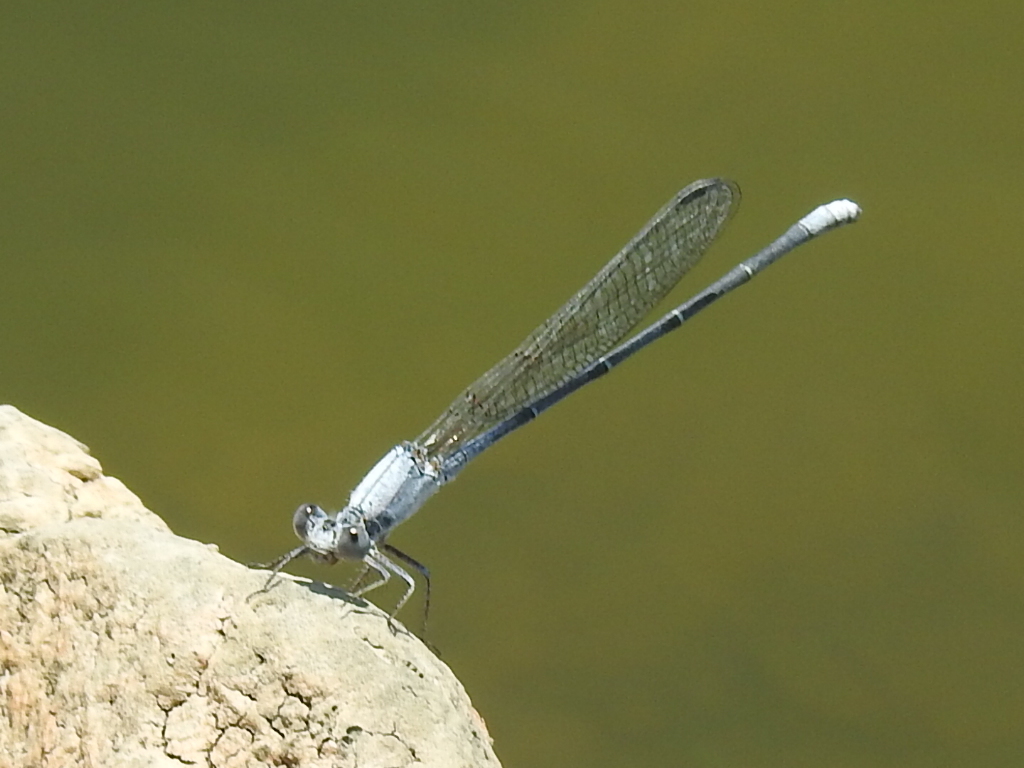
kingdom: Animalia
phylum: Arthropoda
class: Insecta
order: Odonata
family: Coenagrionidae
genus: Argia
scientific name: Argia moesta
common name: Powdered dancer
